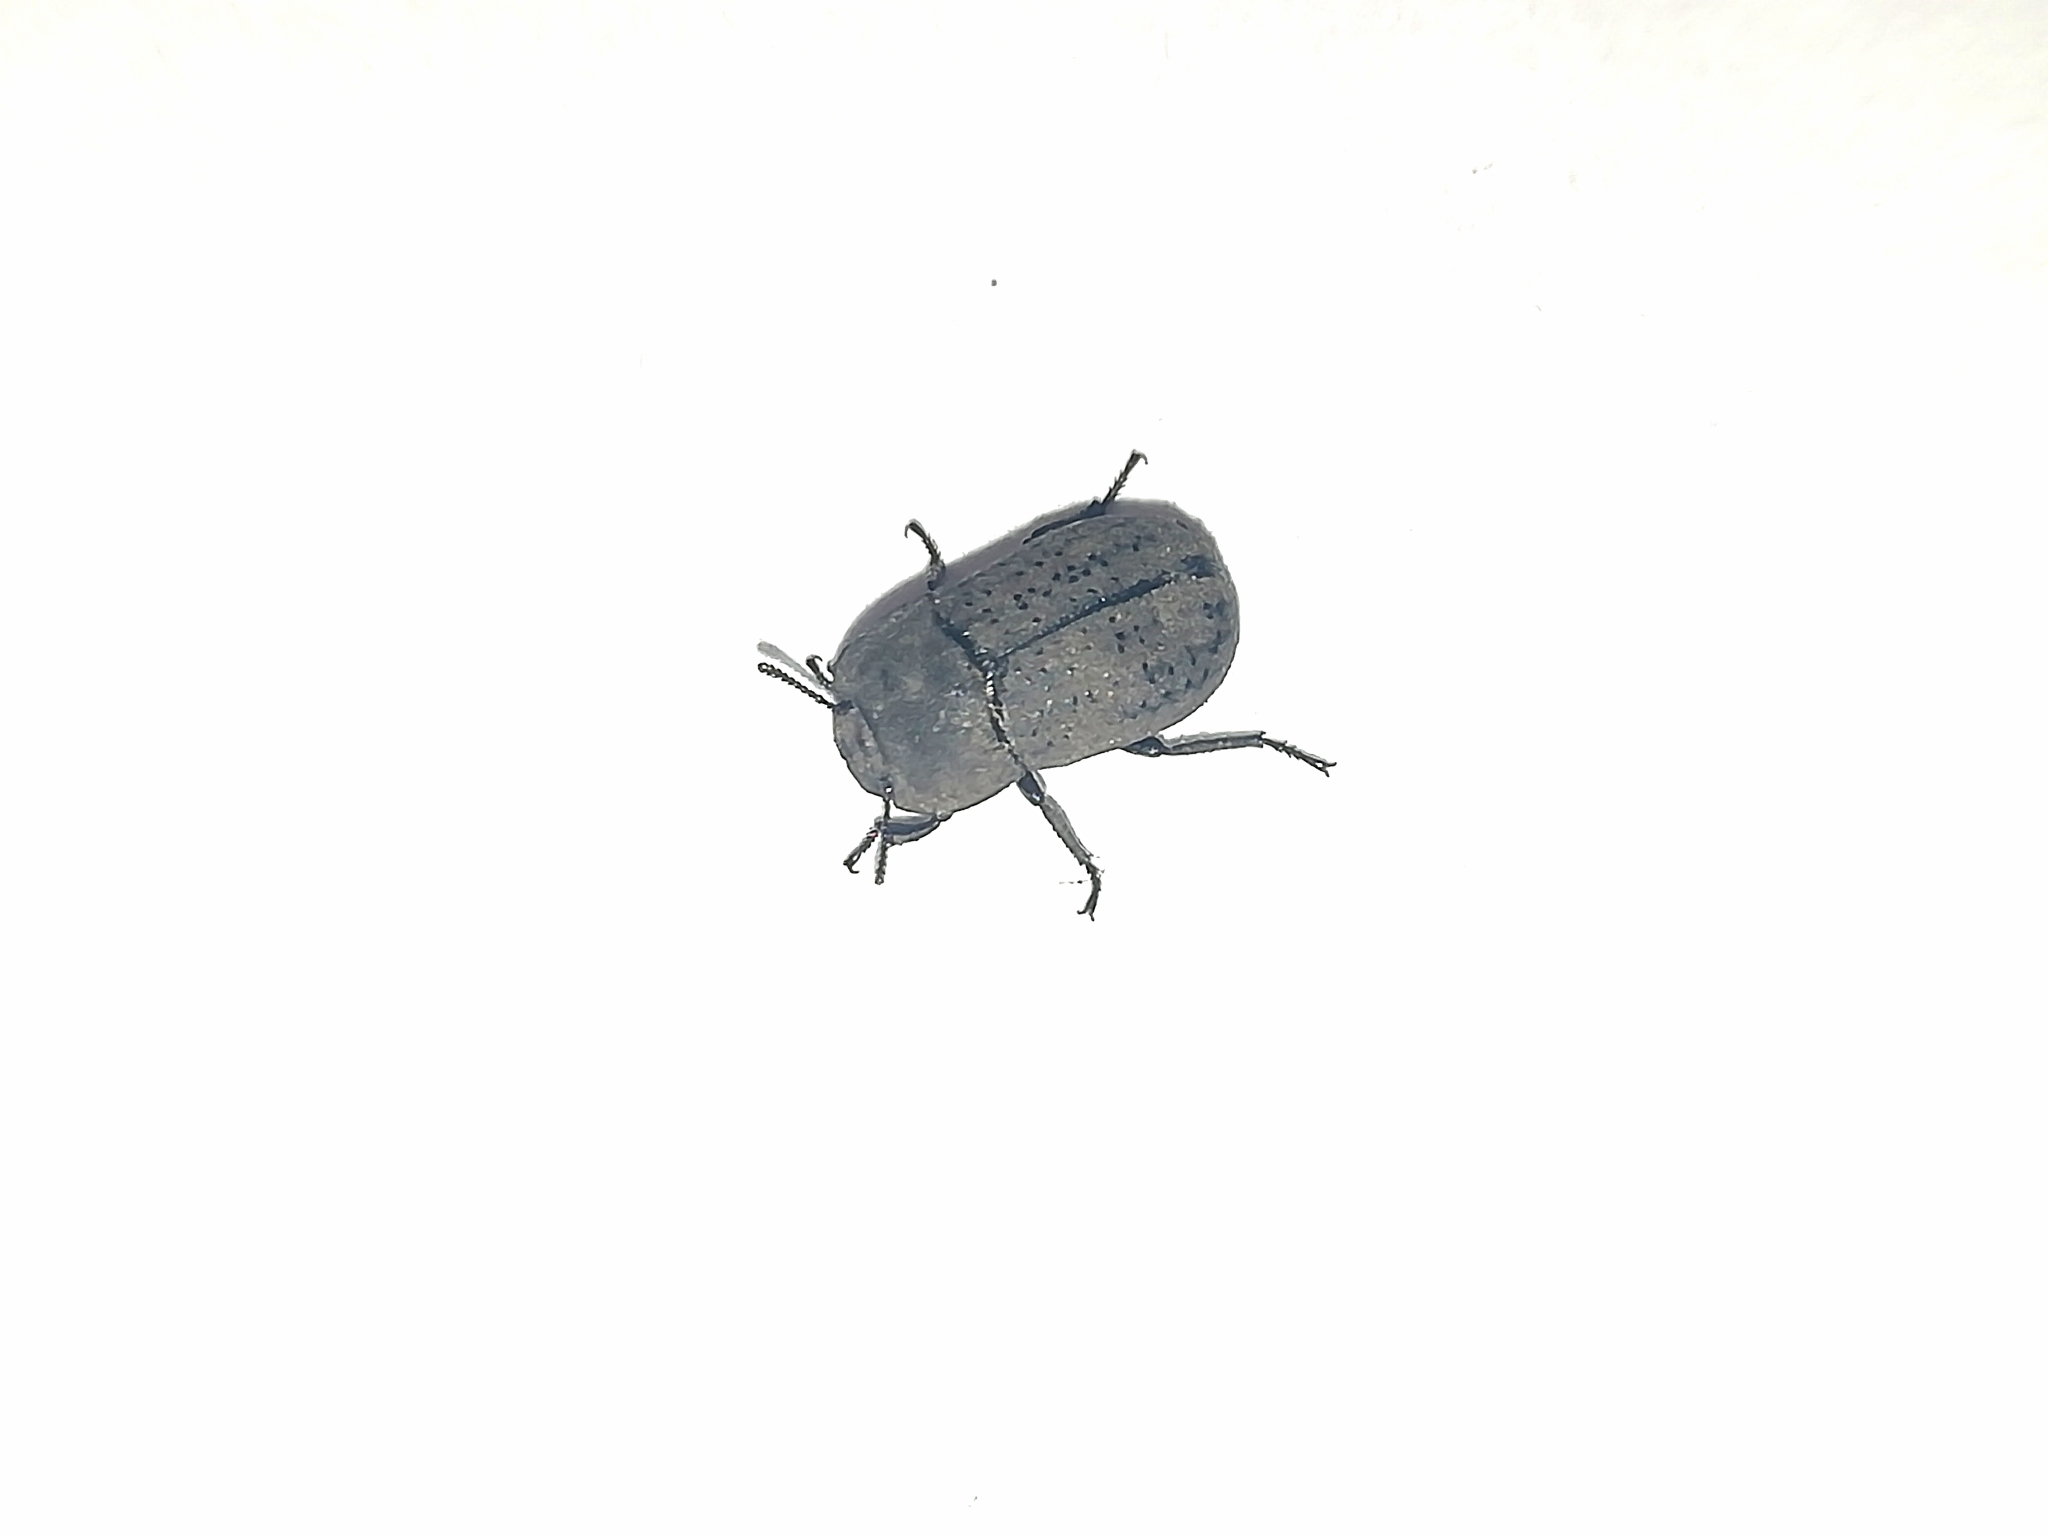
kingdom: Animalia
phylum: Arthropoda
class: Insecta
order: Coleoptera
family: Tenebrionidae
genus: Opatrum
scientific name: Opatrum sabulosum
